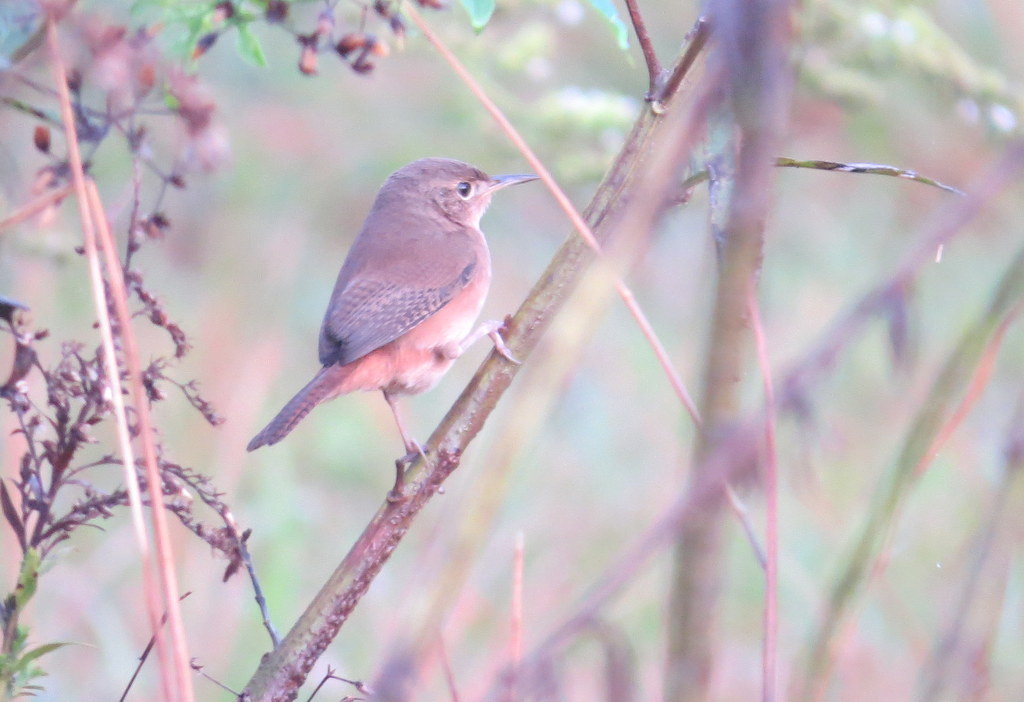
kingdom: Animalia
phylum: Chordata
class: Aves
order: Passeriformes
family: Troglodytidae
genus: Troglodytes
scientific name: Troglodytes aedon
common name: House wren
